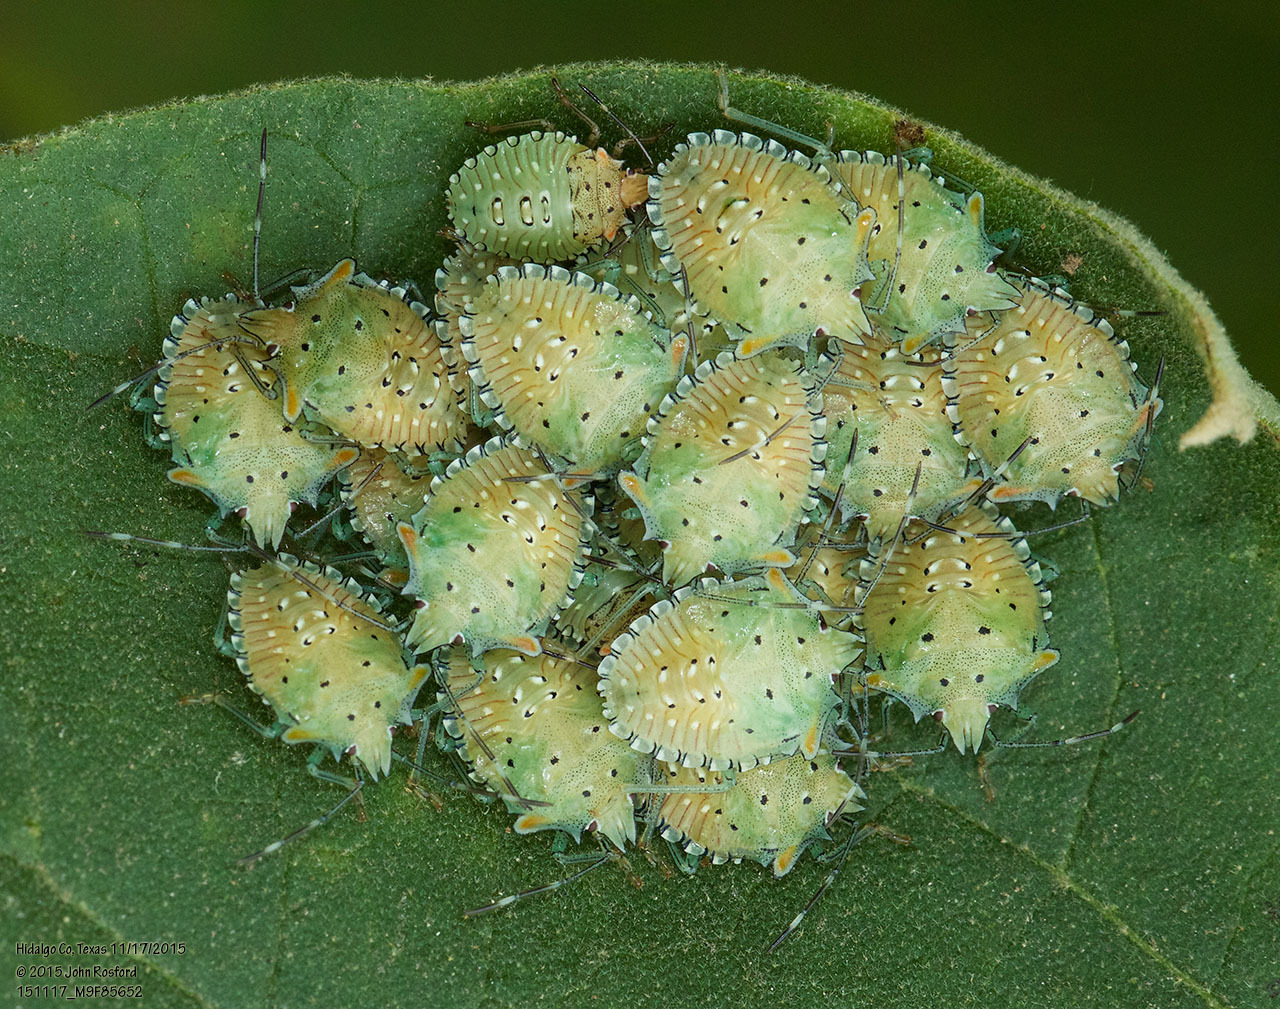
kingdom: Animalia
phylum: Arthropoda
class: Insecta
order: Hemiptera
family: Pentatomidae
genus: Arvelius
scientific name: Arvelius albopunctatus
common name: Tomato stink bug
